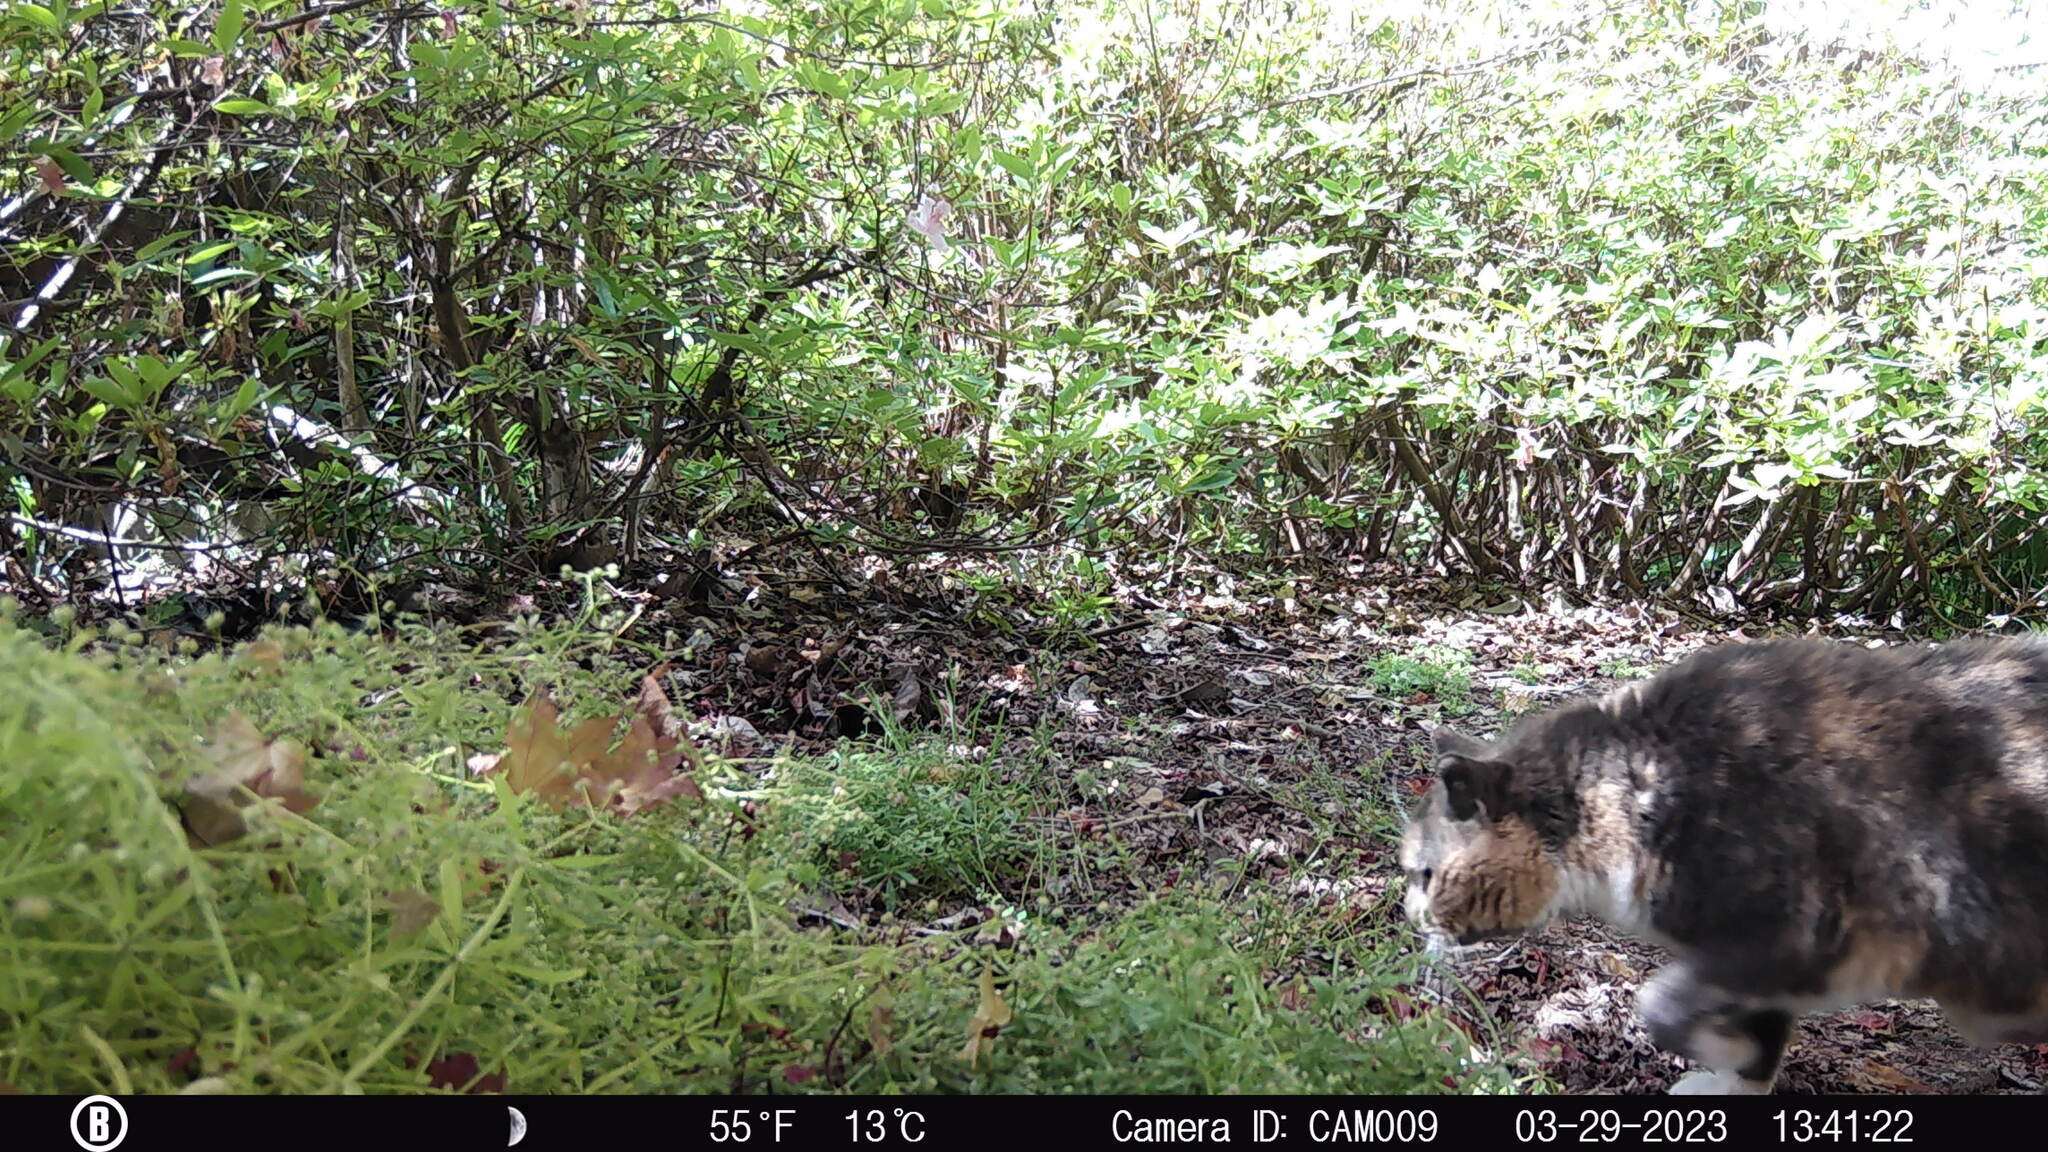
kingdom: Animalia
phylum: Chordata
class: Mammalia
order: Carnivora
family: Felidae
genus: Felis
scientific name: Felis catus
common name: Domestic cat
